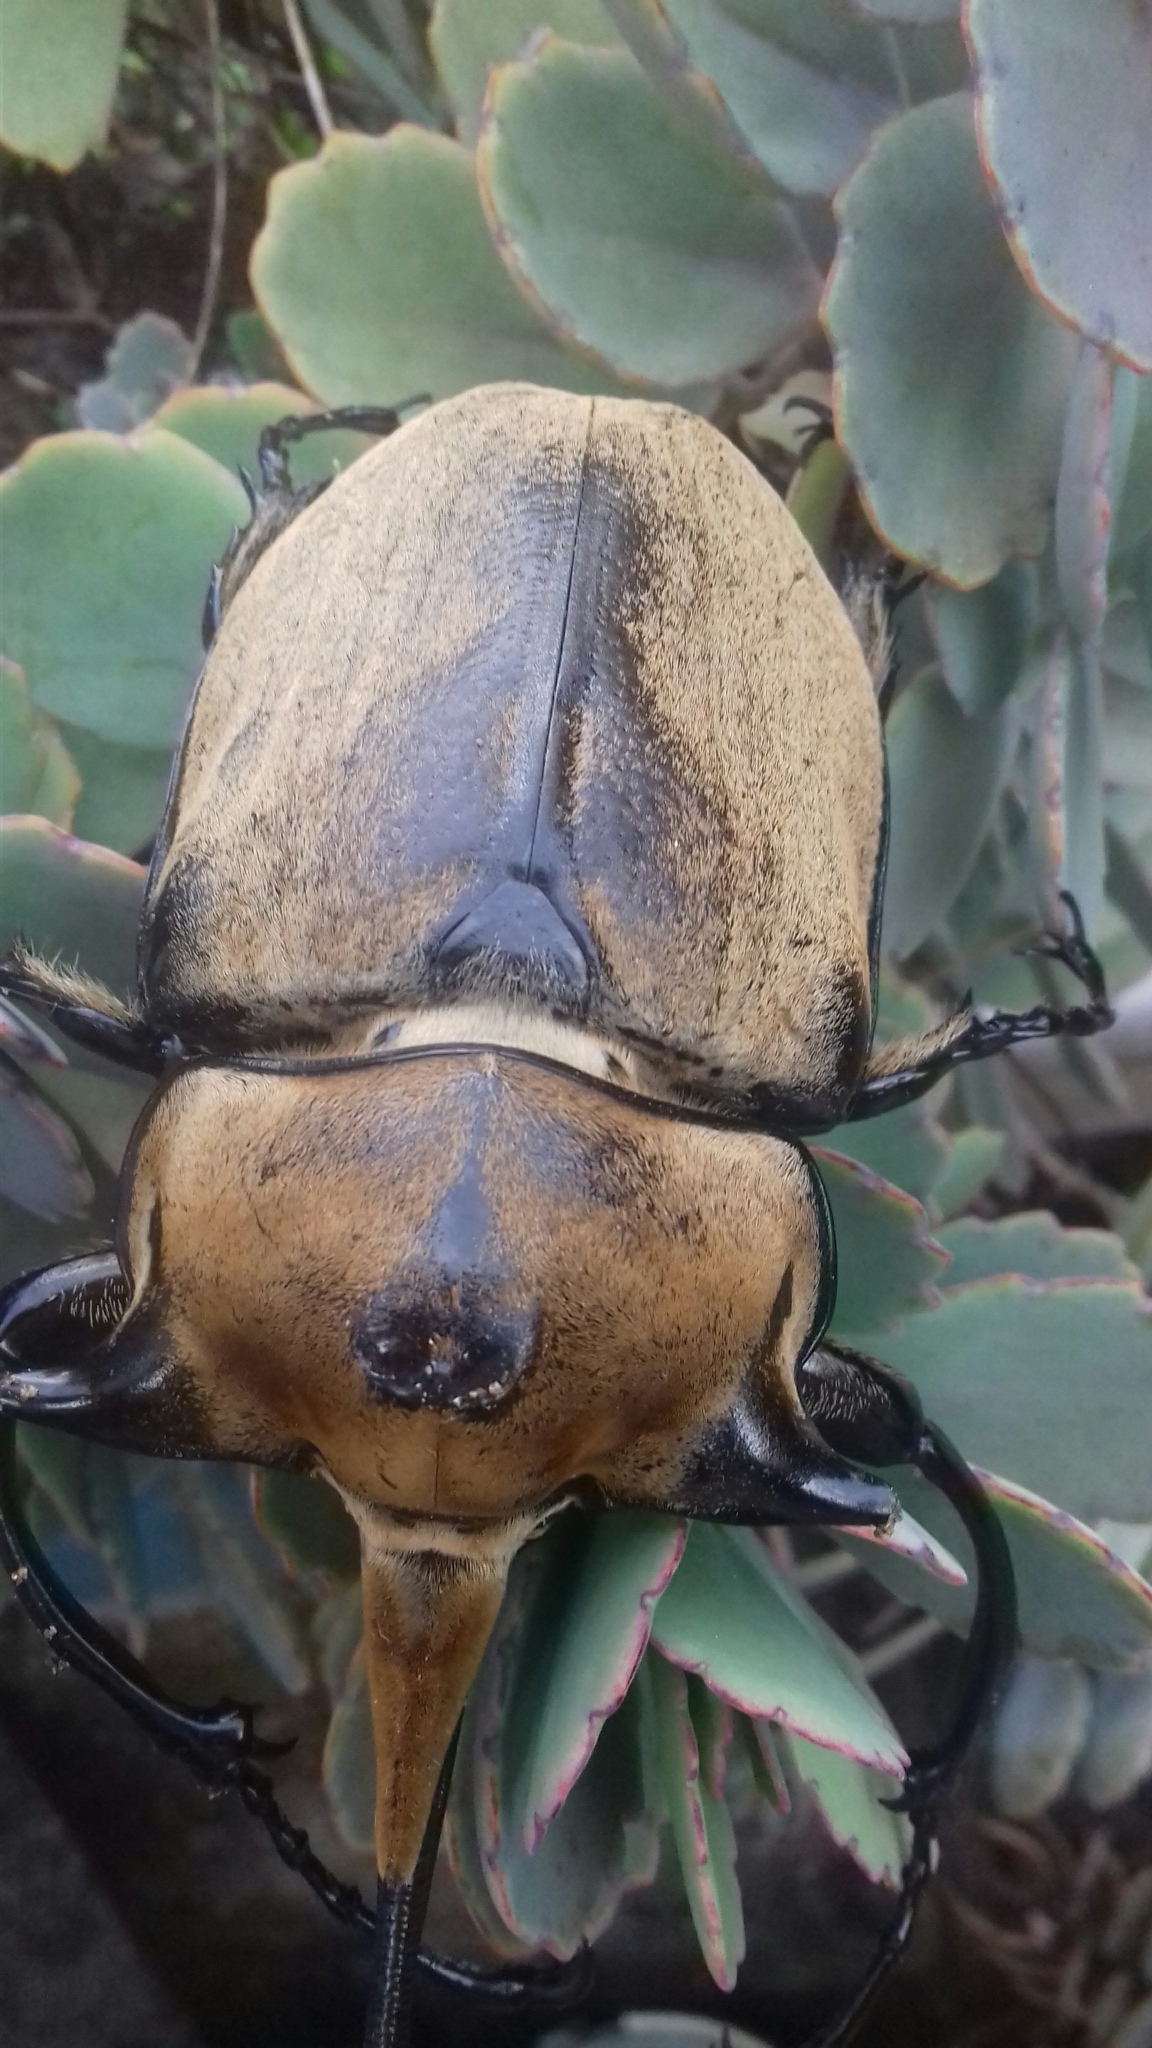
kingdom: Animalia
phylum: Arthropoda
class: Insecta
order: Coleoptera
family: Scarabaeidae
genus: Megasoma
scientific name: Megasoma occidentale
